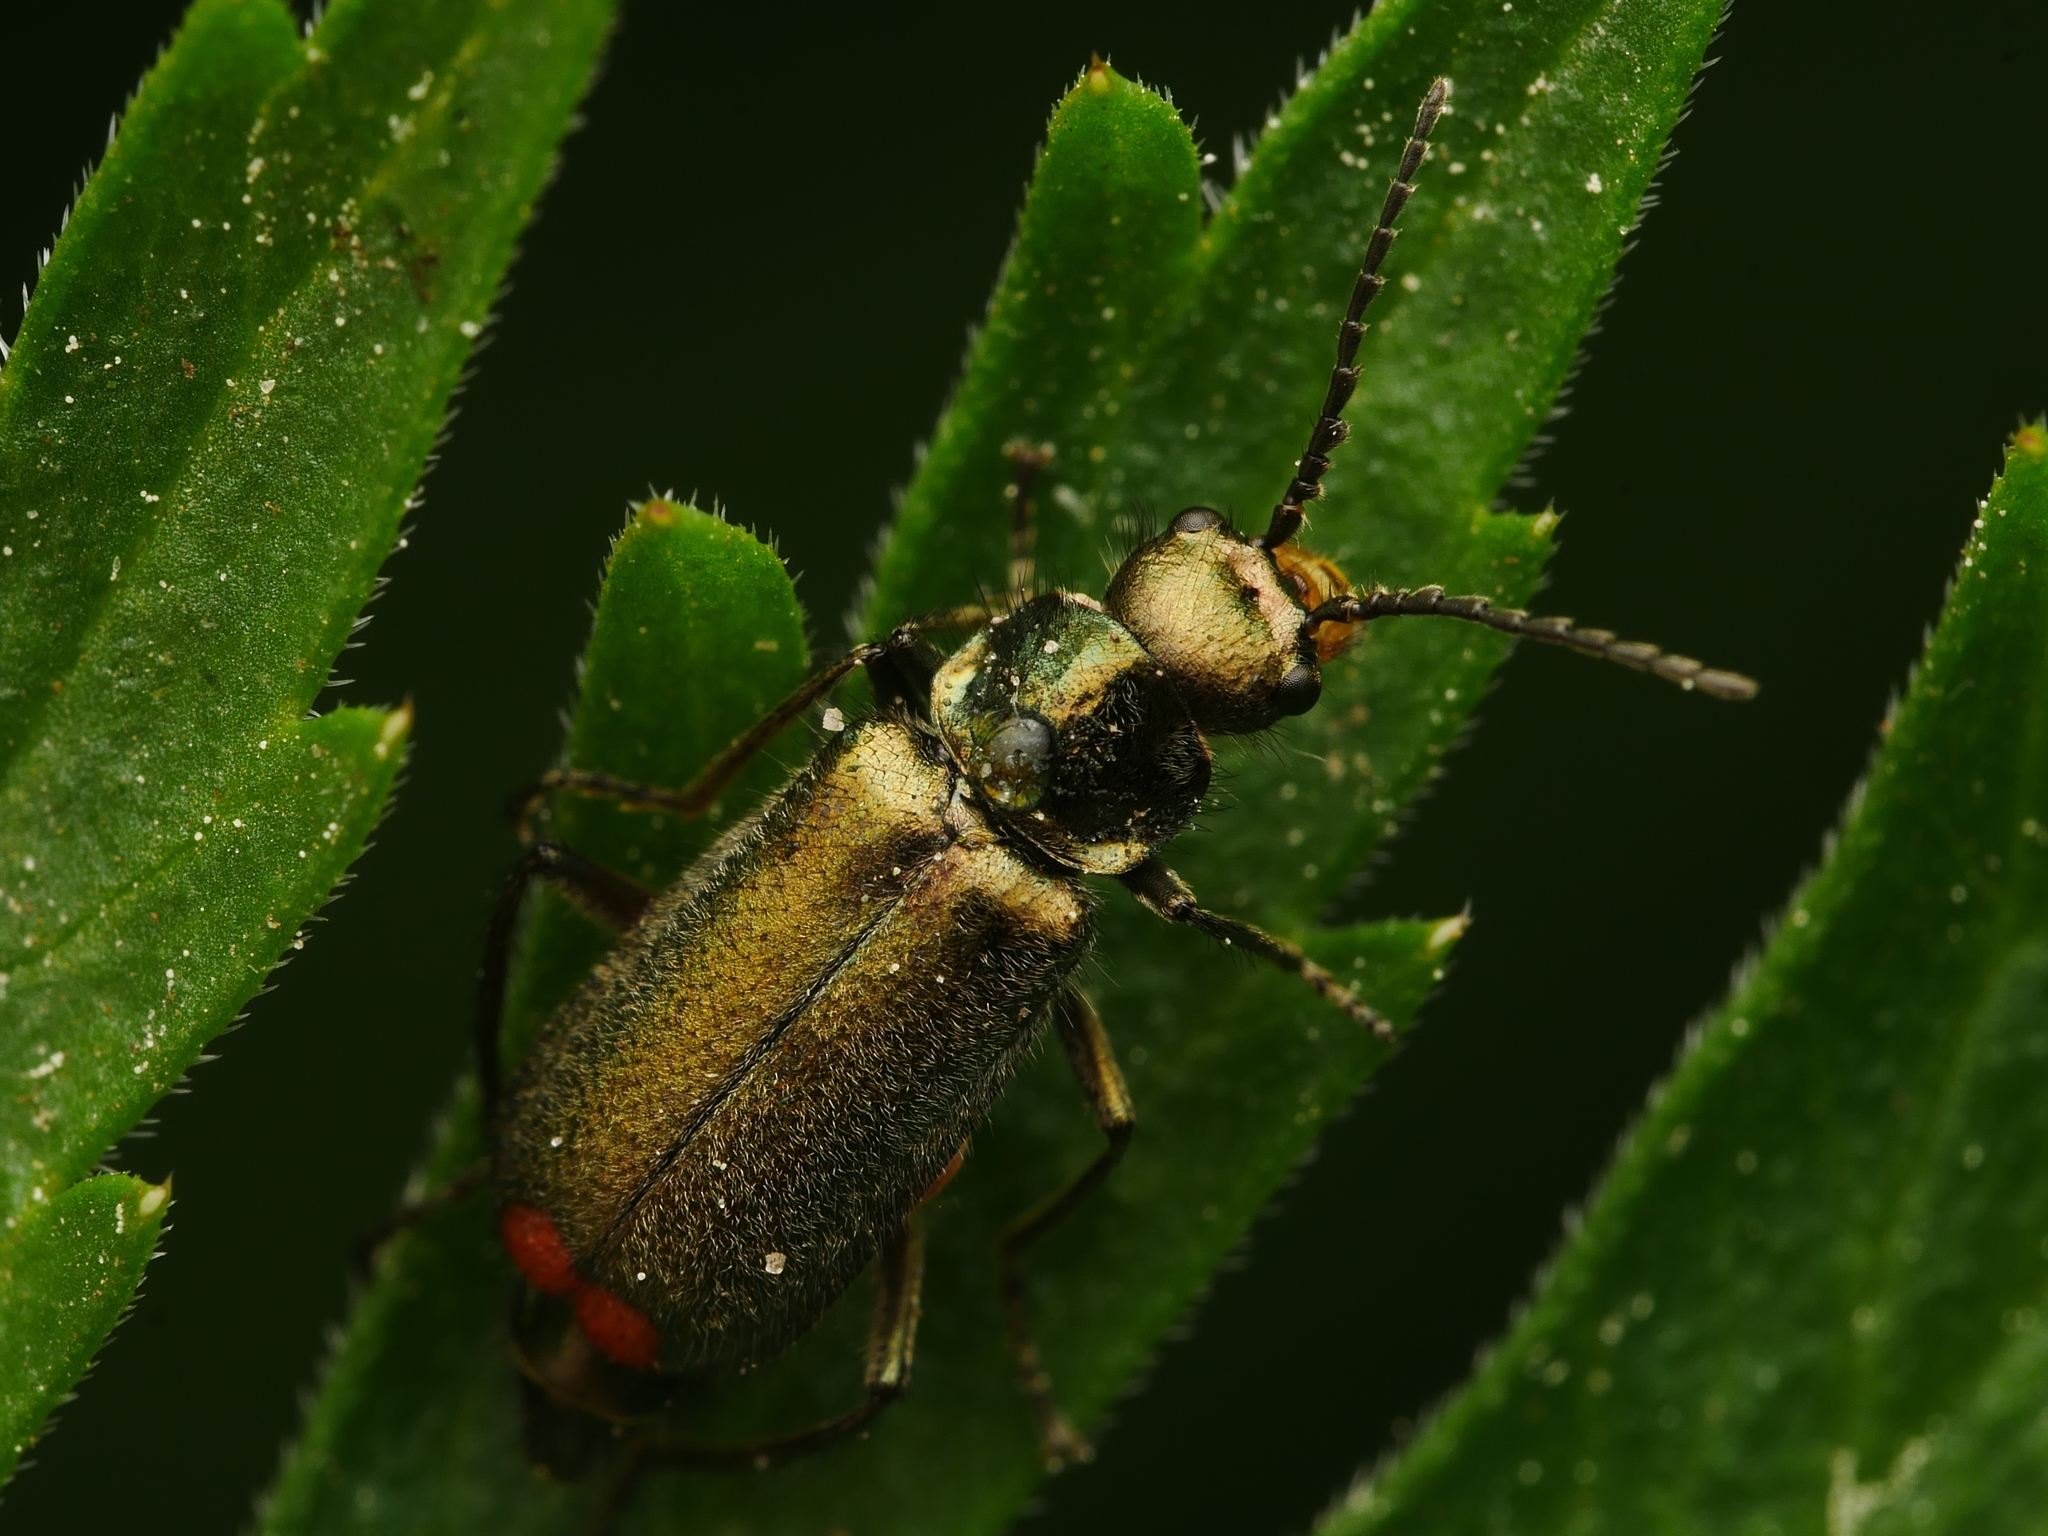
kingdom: Animalia
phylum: Arthropoda
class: Insecta
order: Coleoptera
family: Melyridae
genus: Malachius
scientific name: Malachius bipustulatus
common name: Malachite beetle
